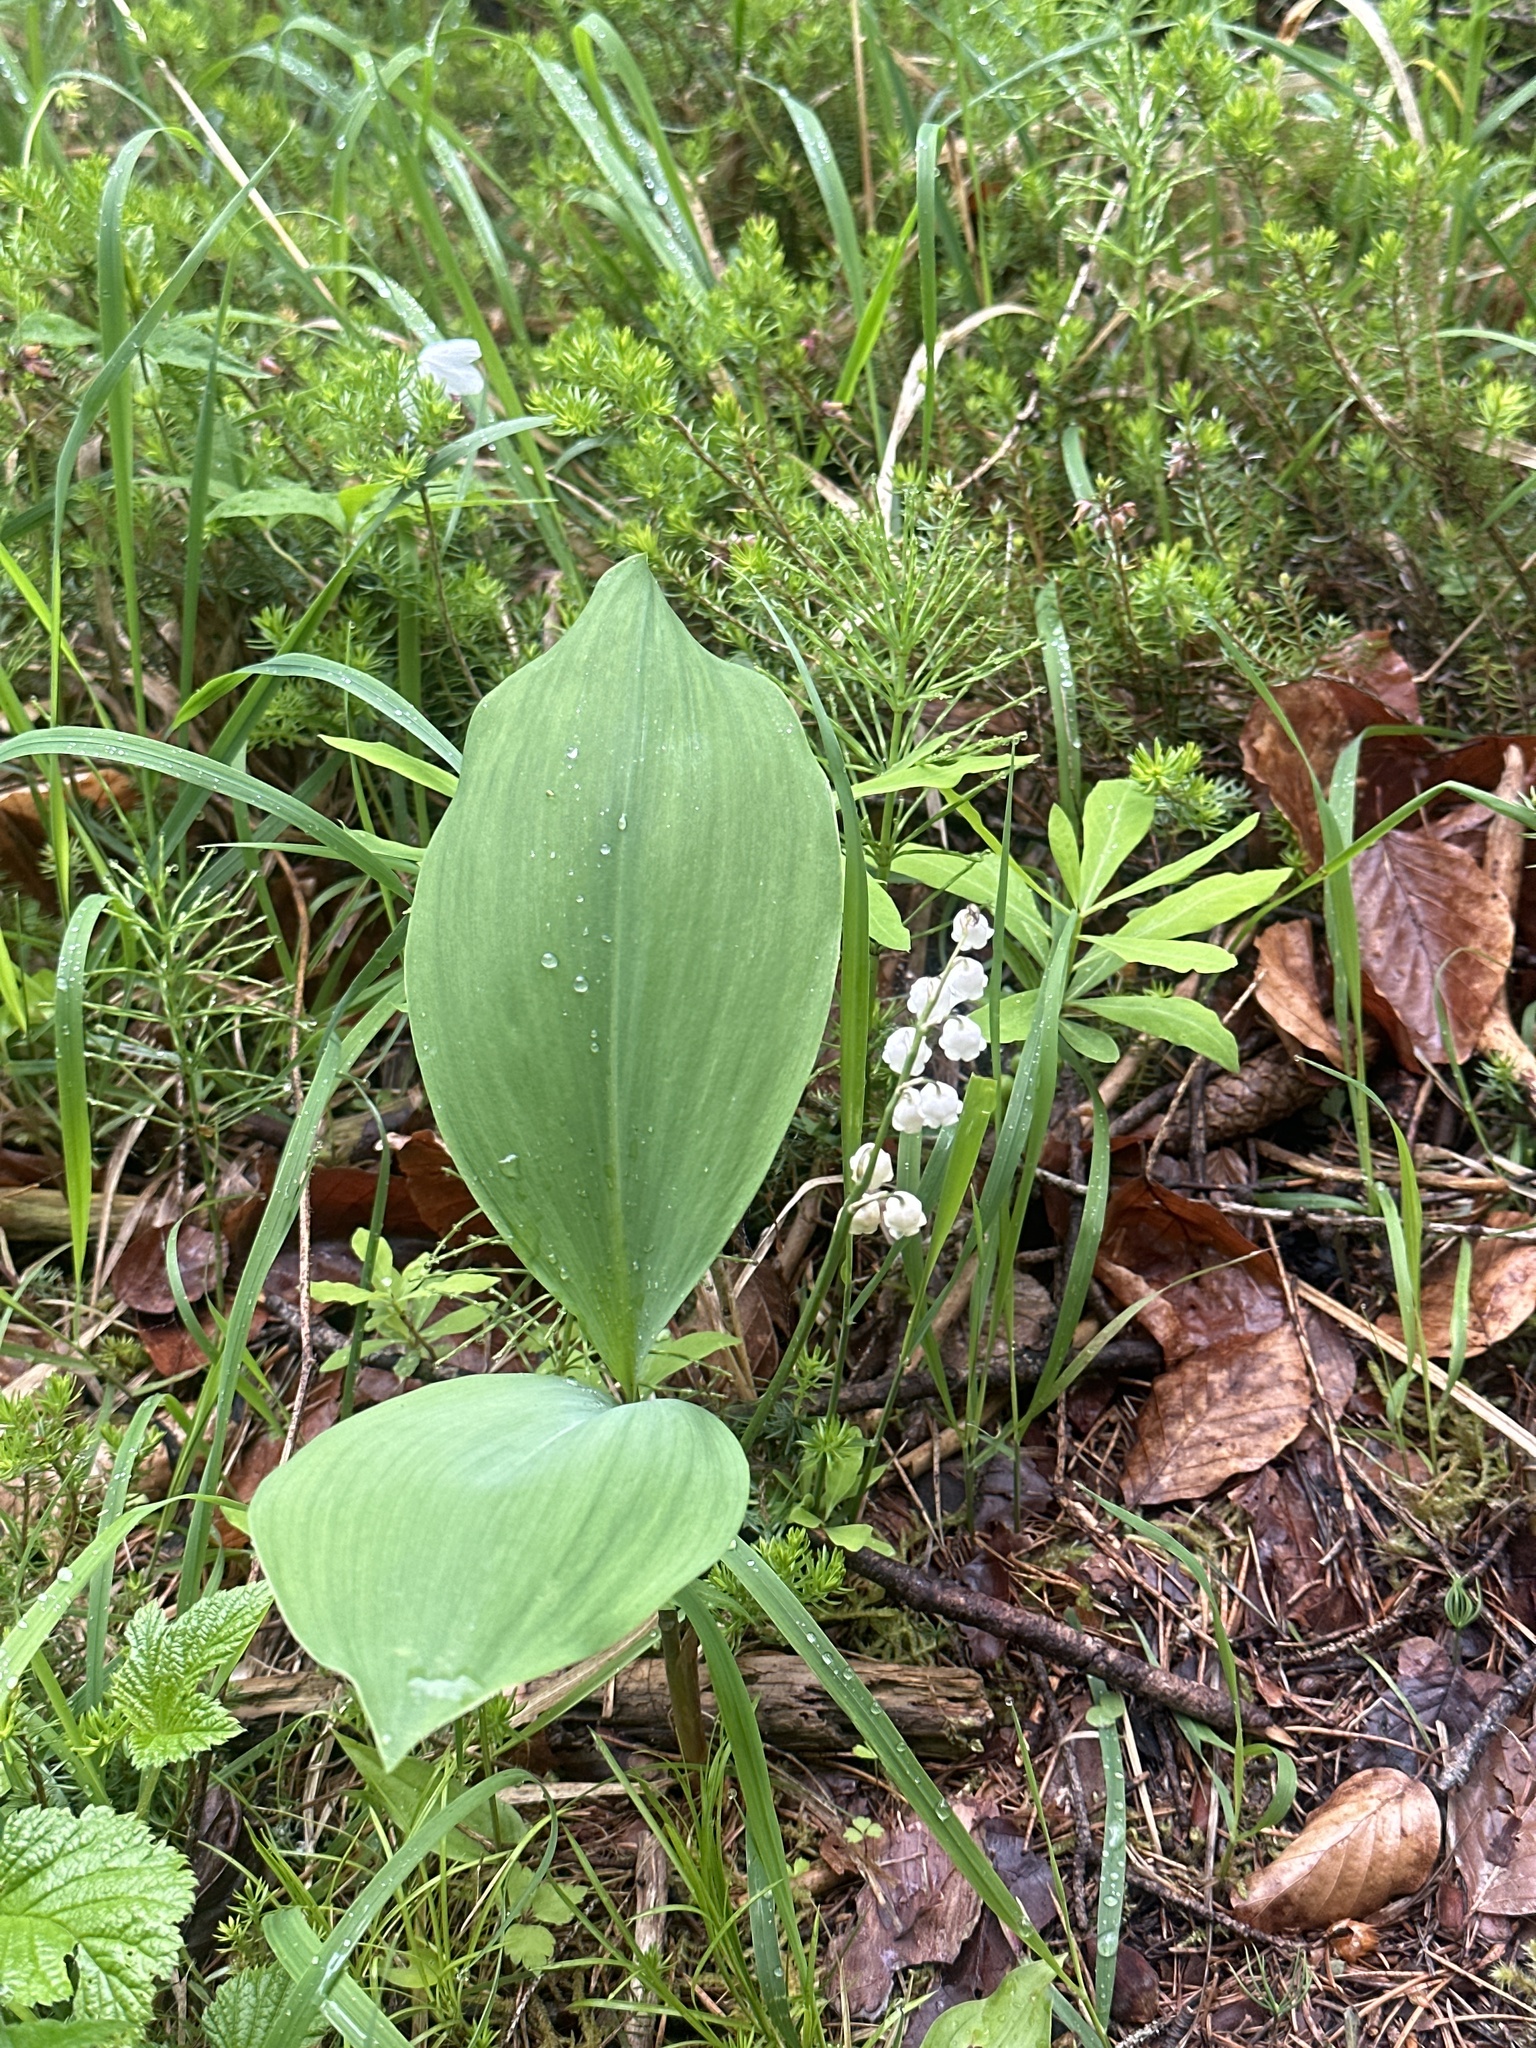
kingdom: Plantae
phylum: Tracheophyta
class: Liliopsida
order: Asparagales
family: Asparagaceae
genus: Convallaria
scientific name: Convallaria majalis
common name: Lily-of-the-valley
